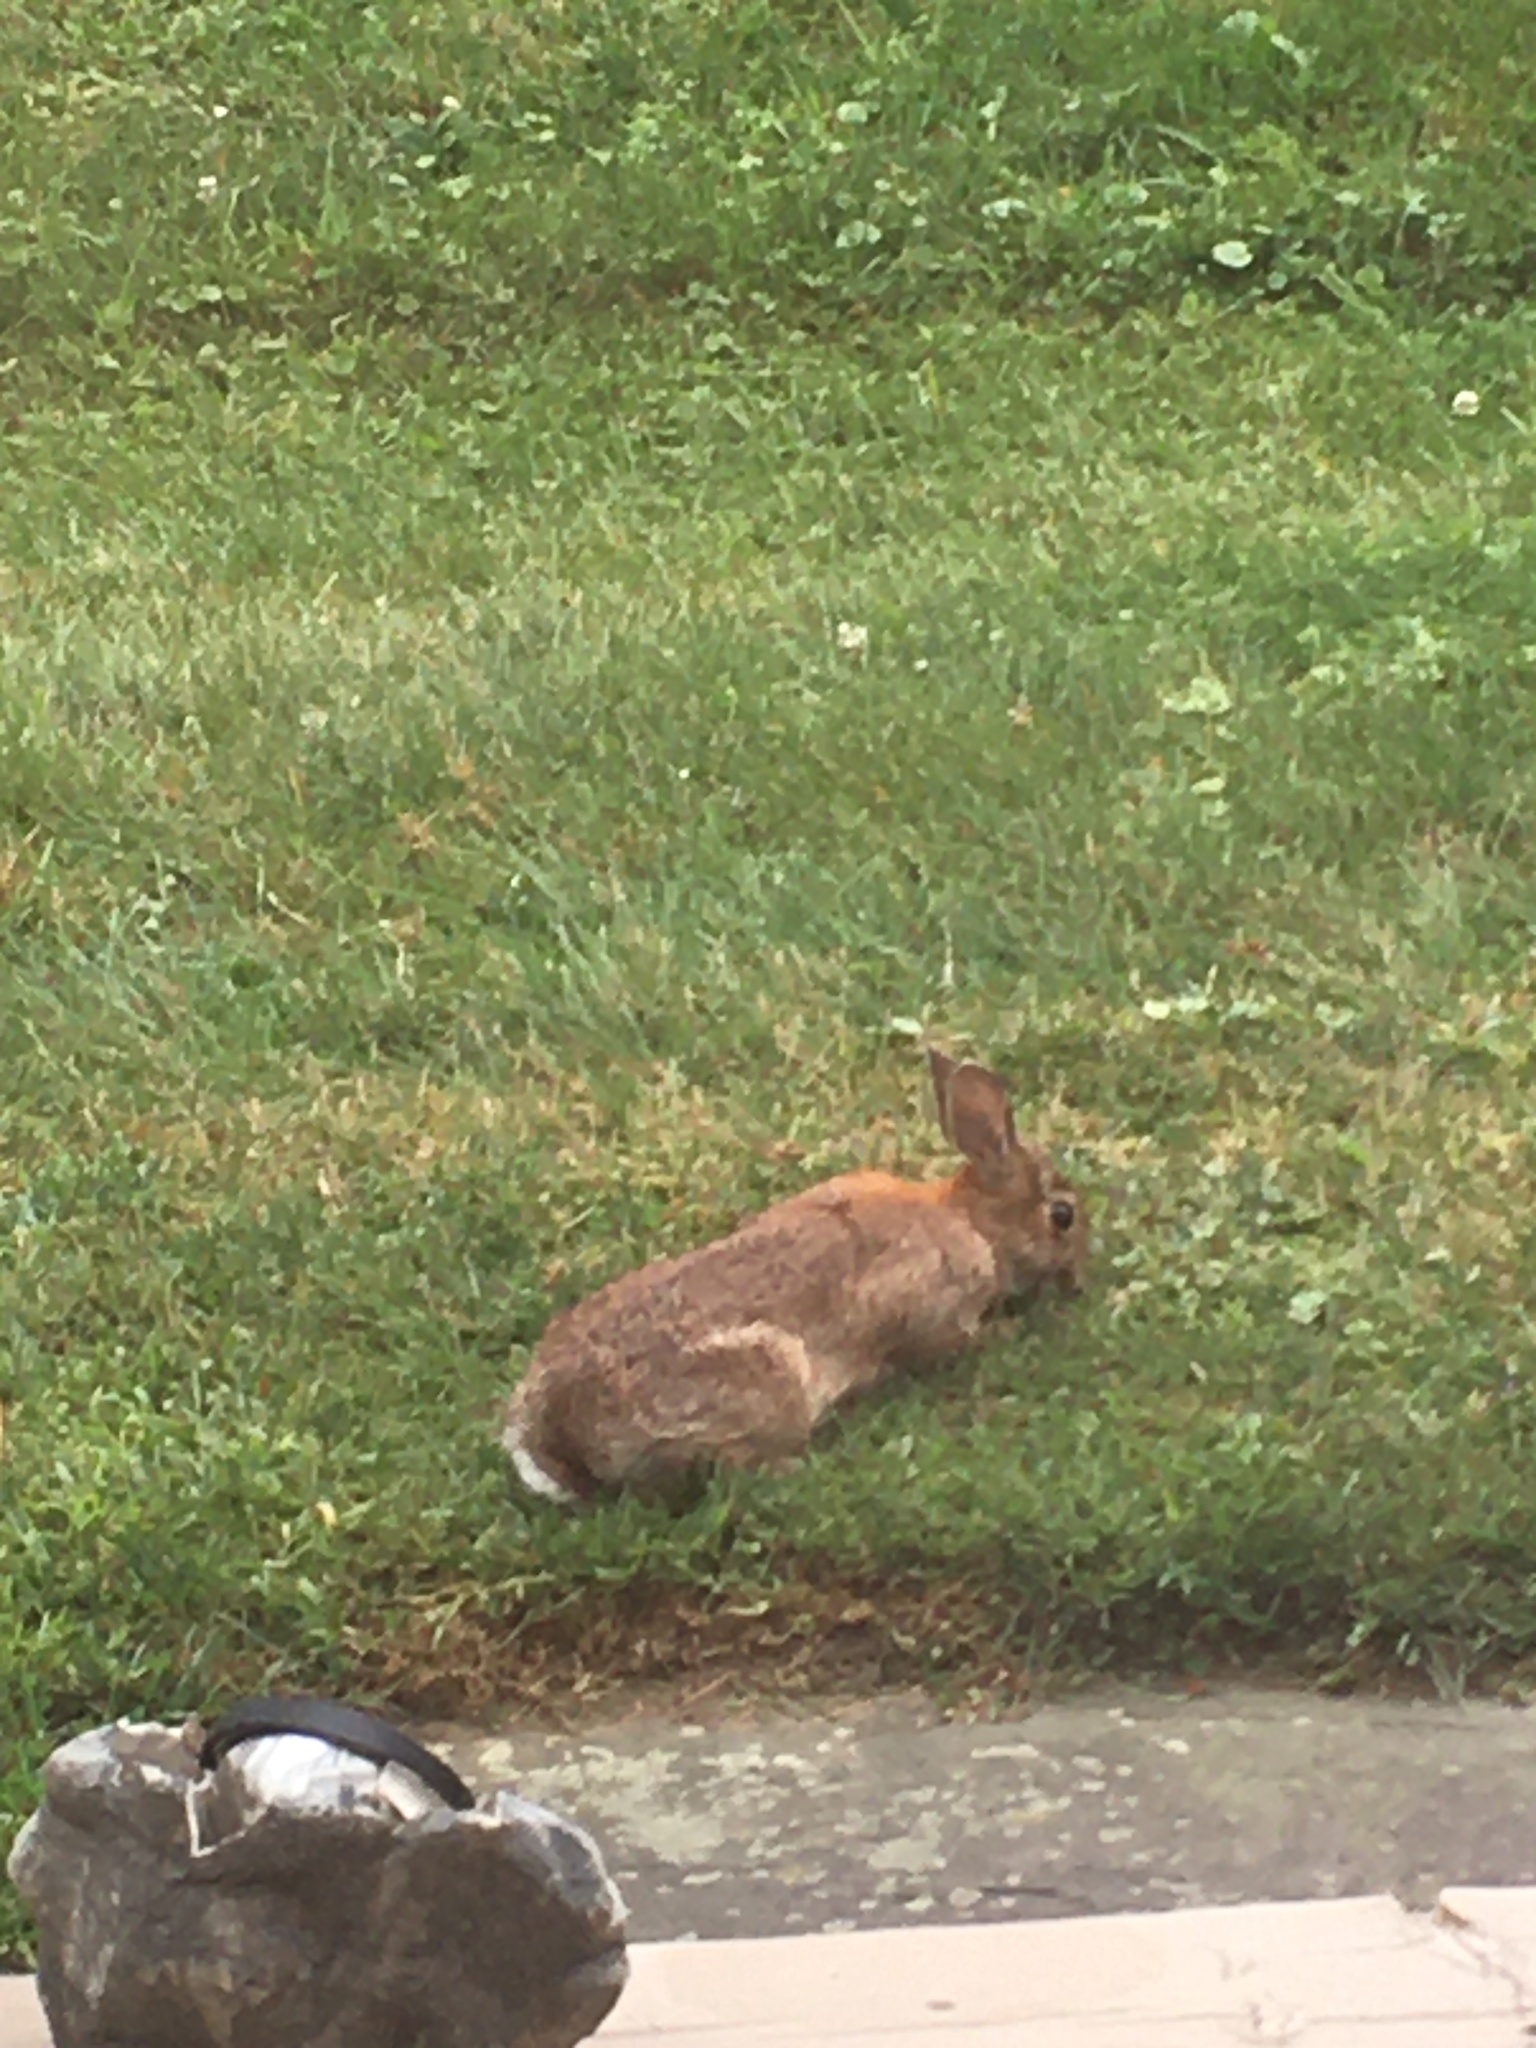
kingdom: Animalia
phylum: Chordata
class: Mammalia
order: Lagomorpha
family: Leporidae
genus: Sylvilagus
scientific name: Sylvilagus floridanus
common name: Eastern cottontail
